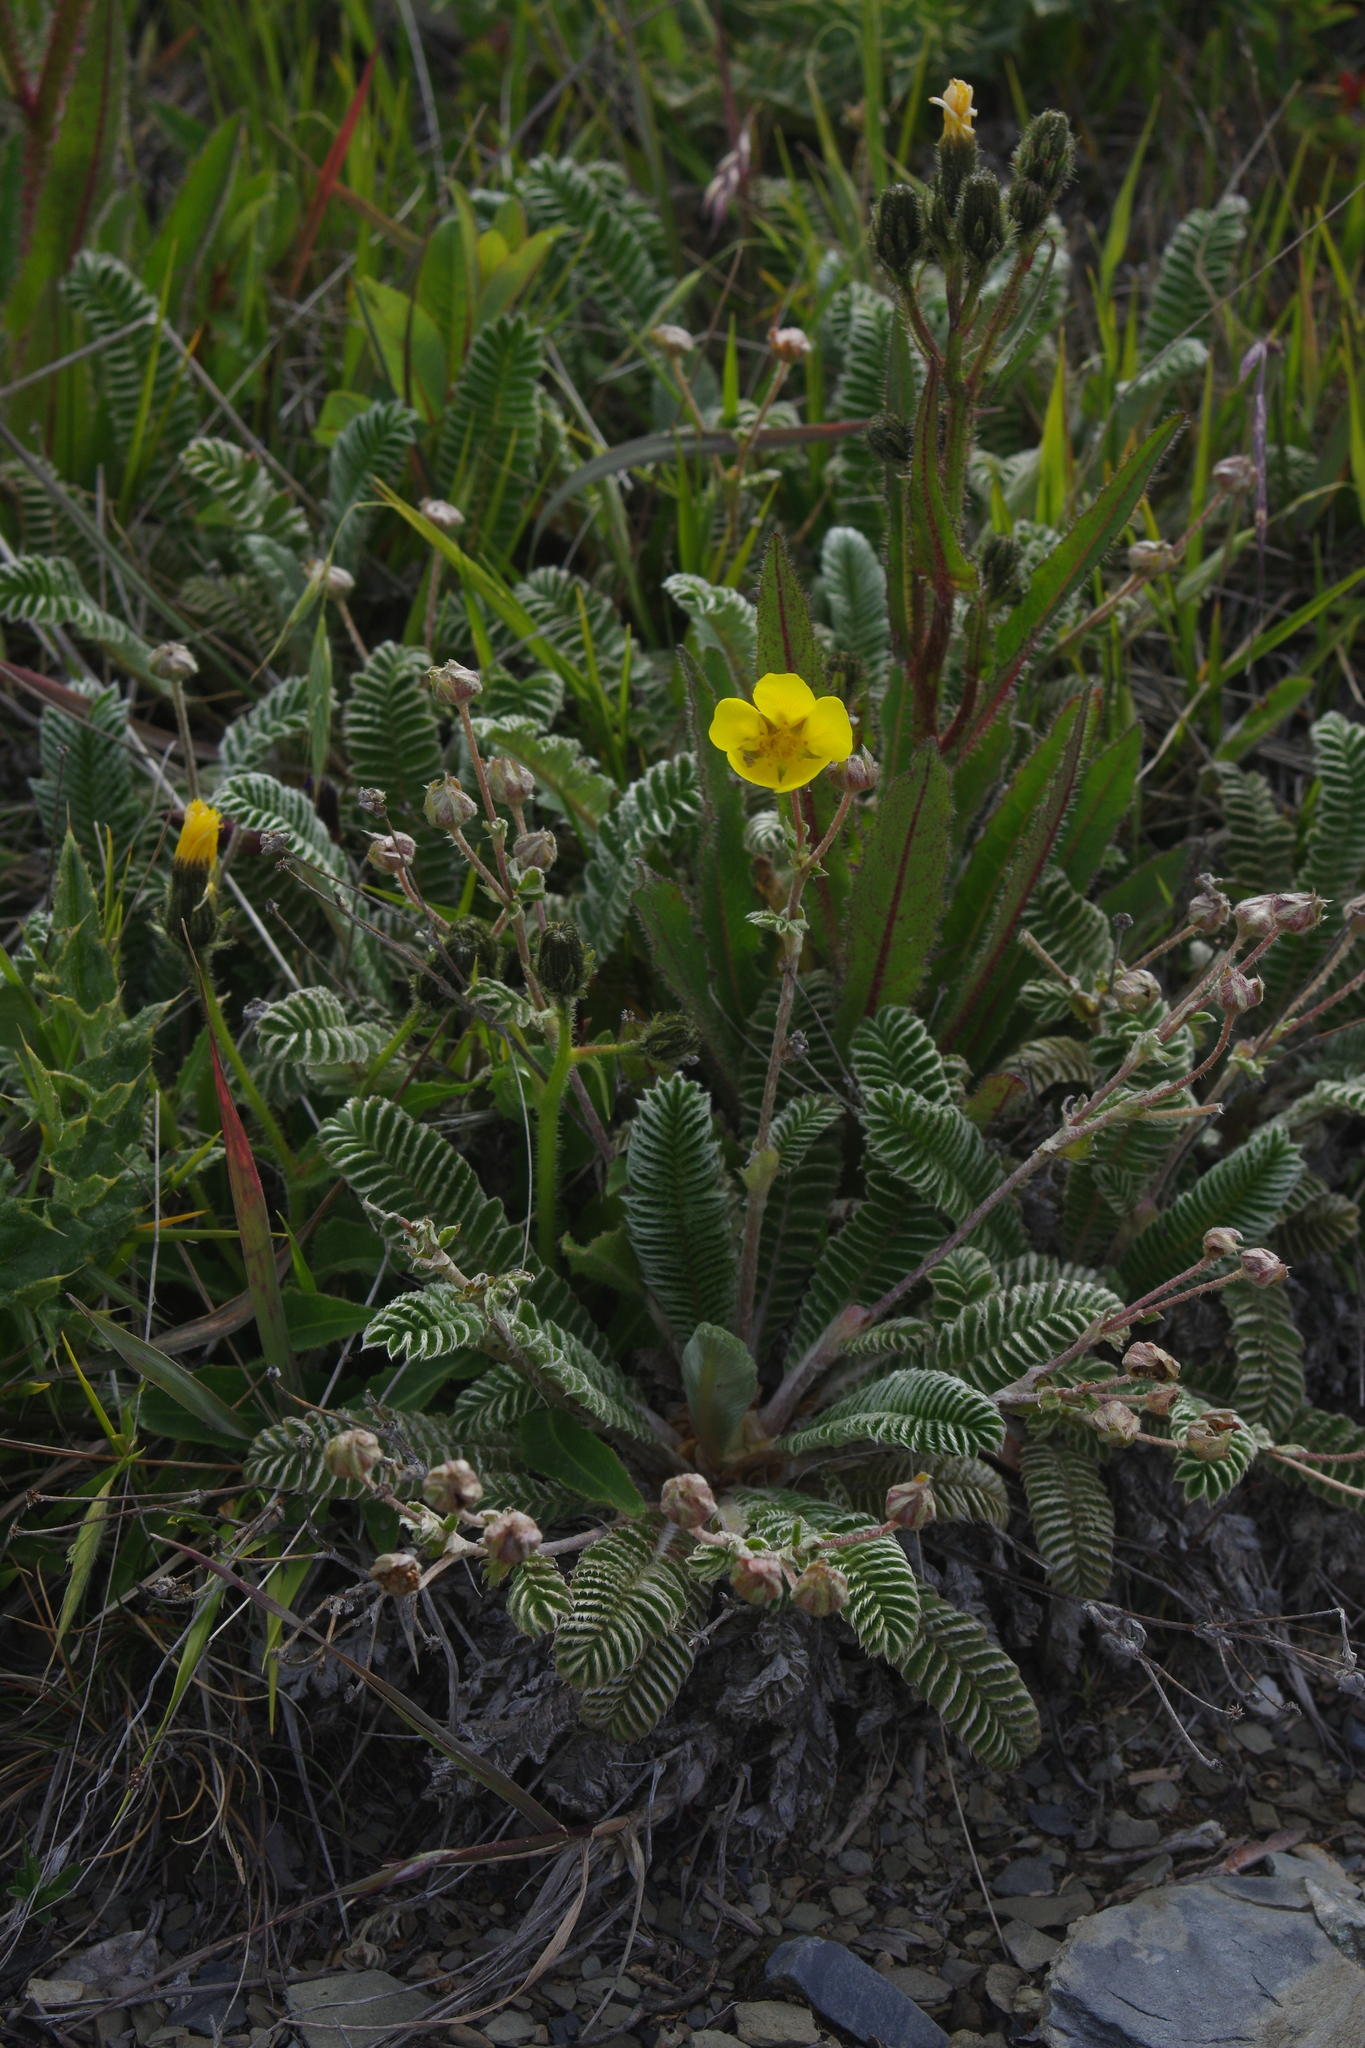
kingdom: Plantae
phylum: Tracheophyta
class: Magnoliopsida
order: Rosales
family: Rosaceae
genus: Argentina
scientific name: Argentina tugitakensis
